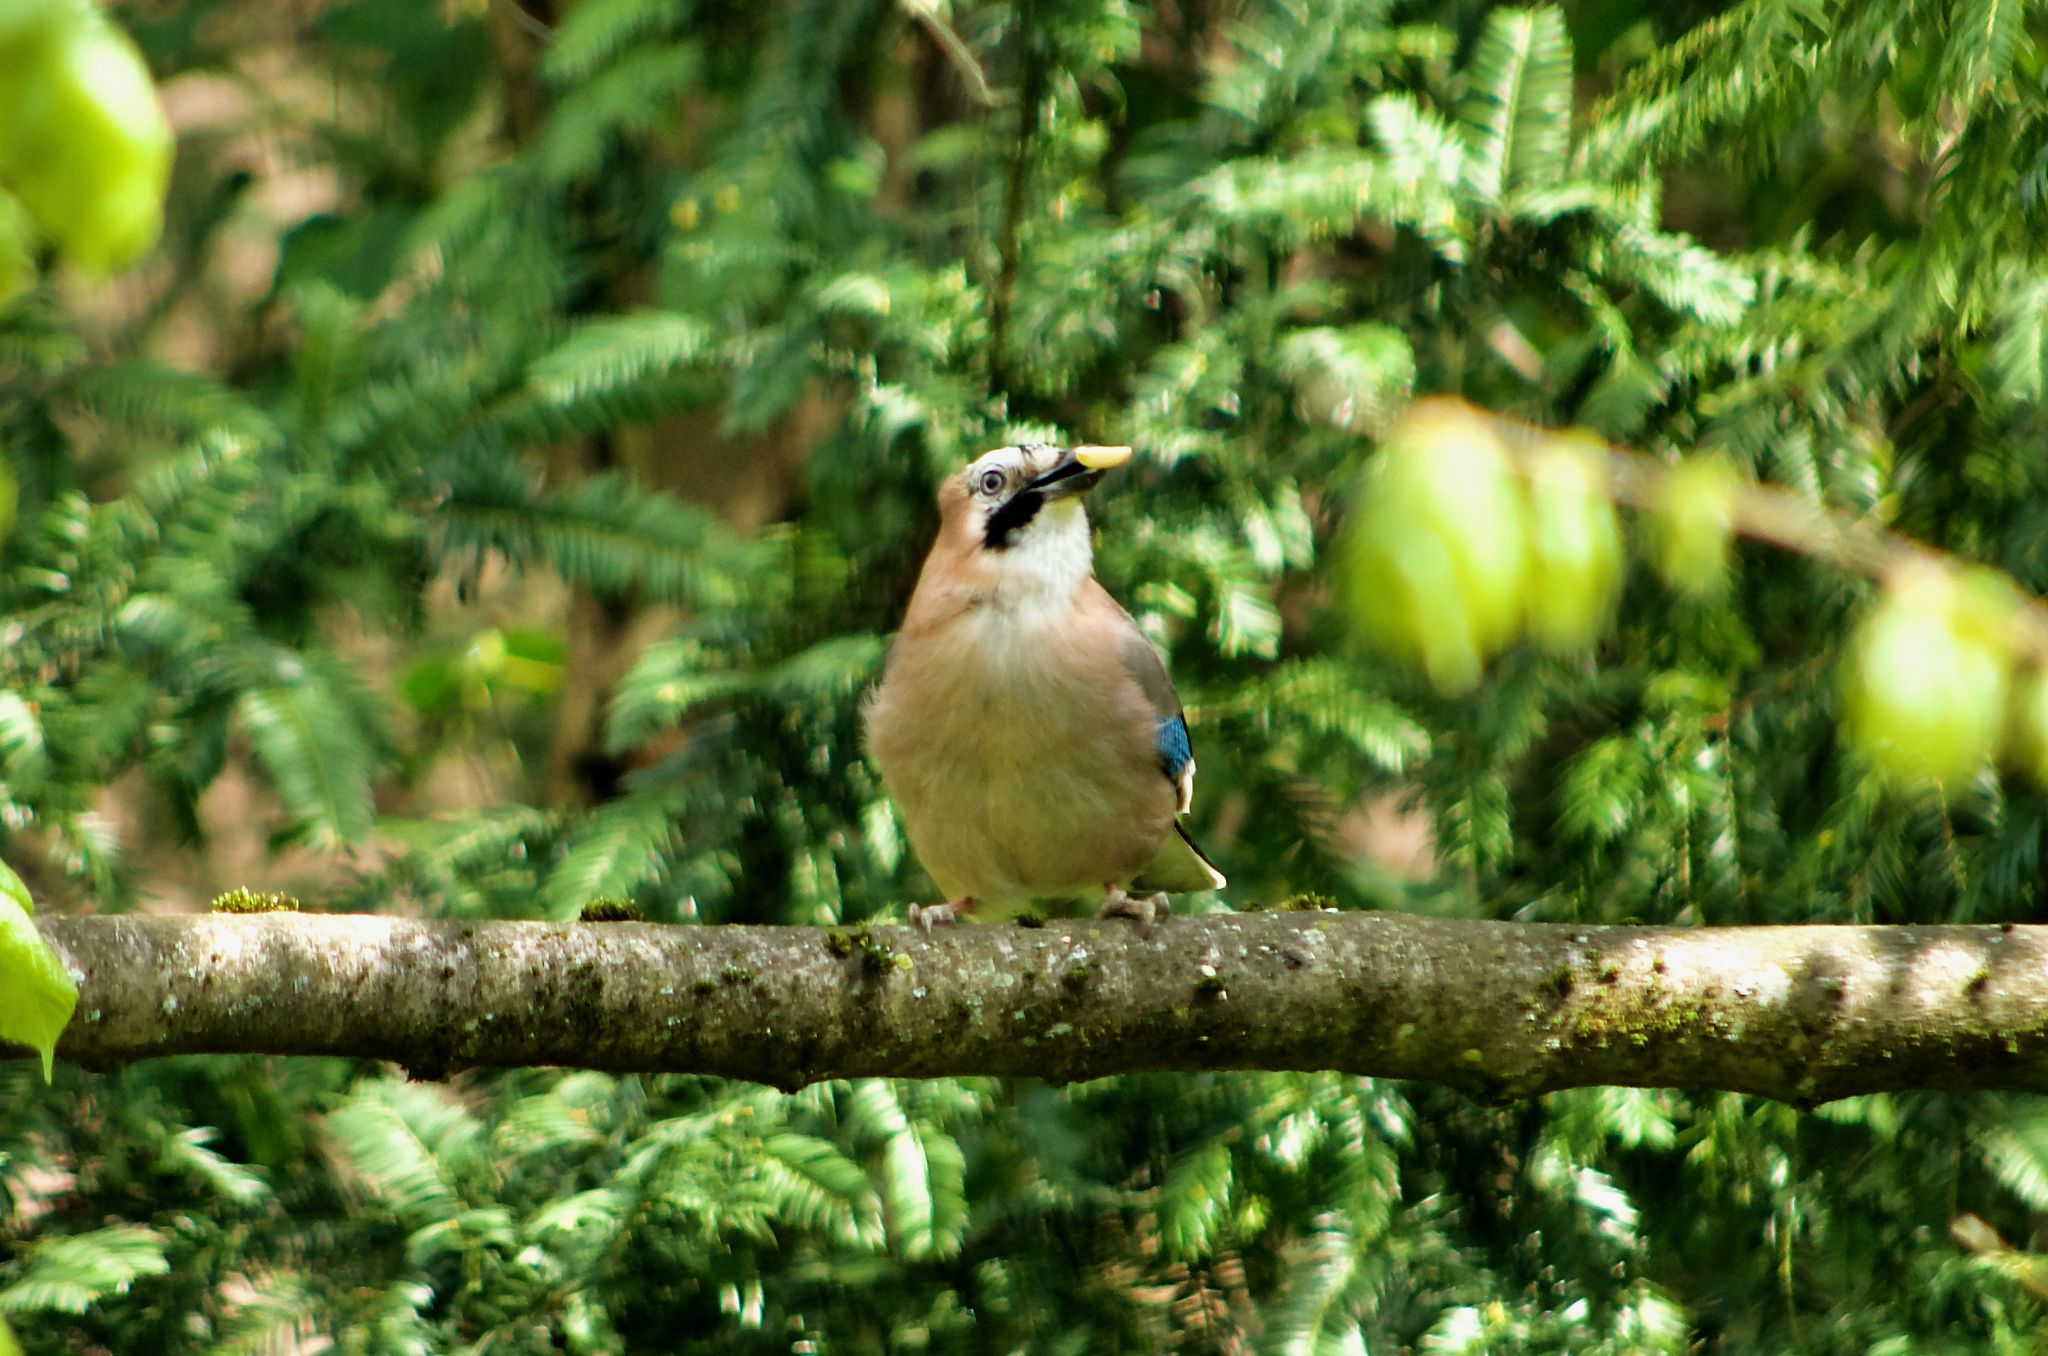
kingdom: Animalia
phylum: Chordata
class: Aves
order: Passeriformes
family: Corvidae
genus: Garrulus
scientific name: Garrulus glandarius
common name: Eurasian jay
